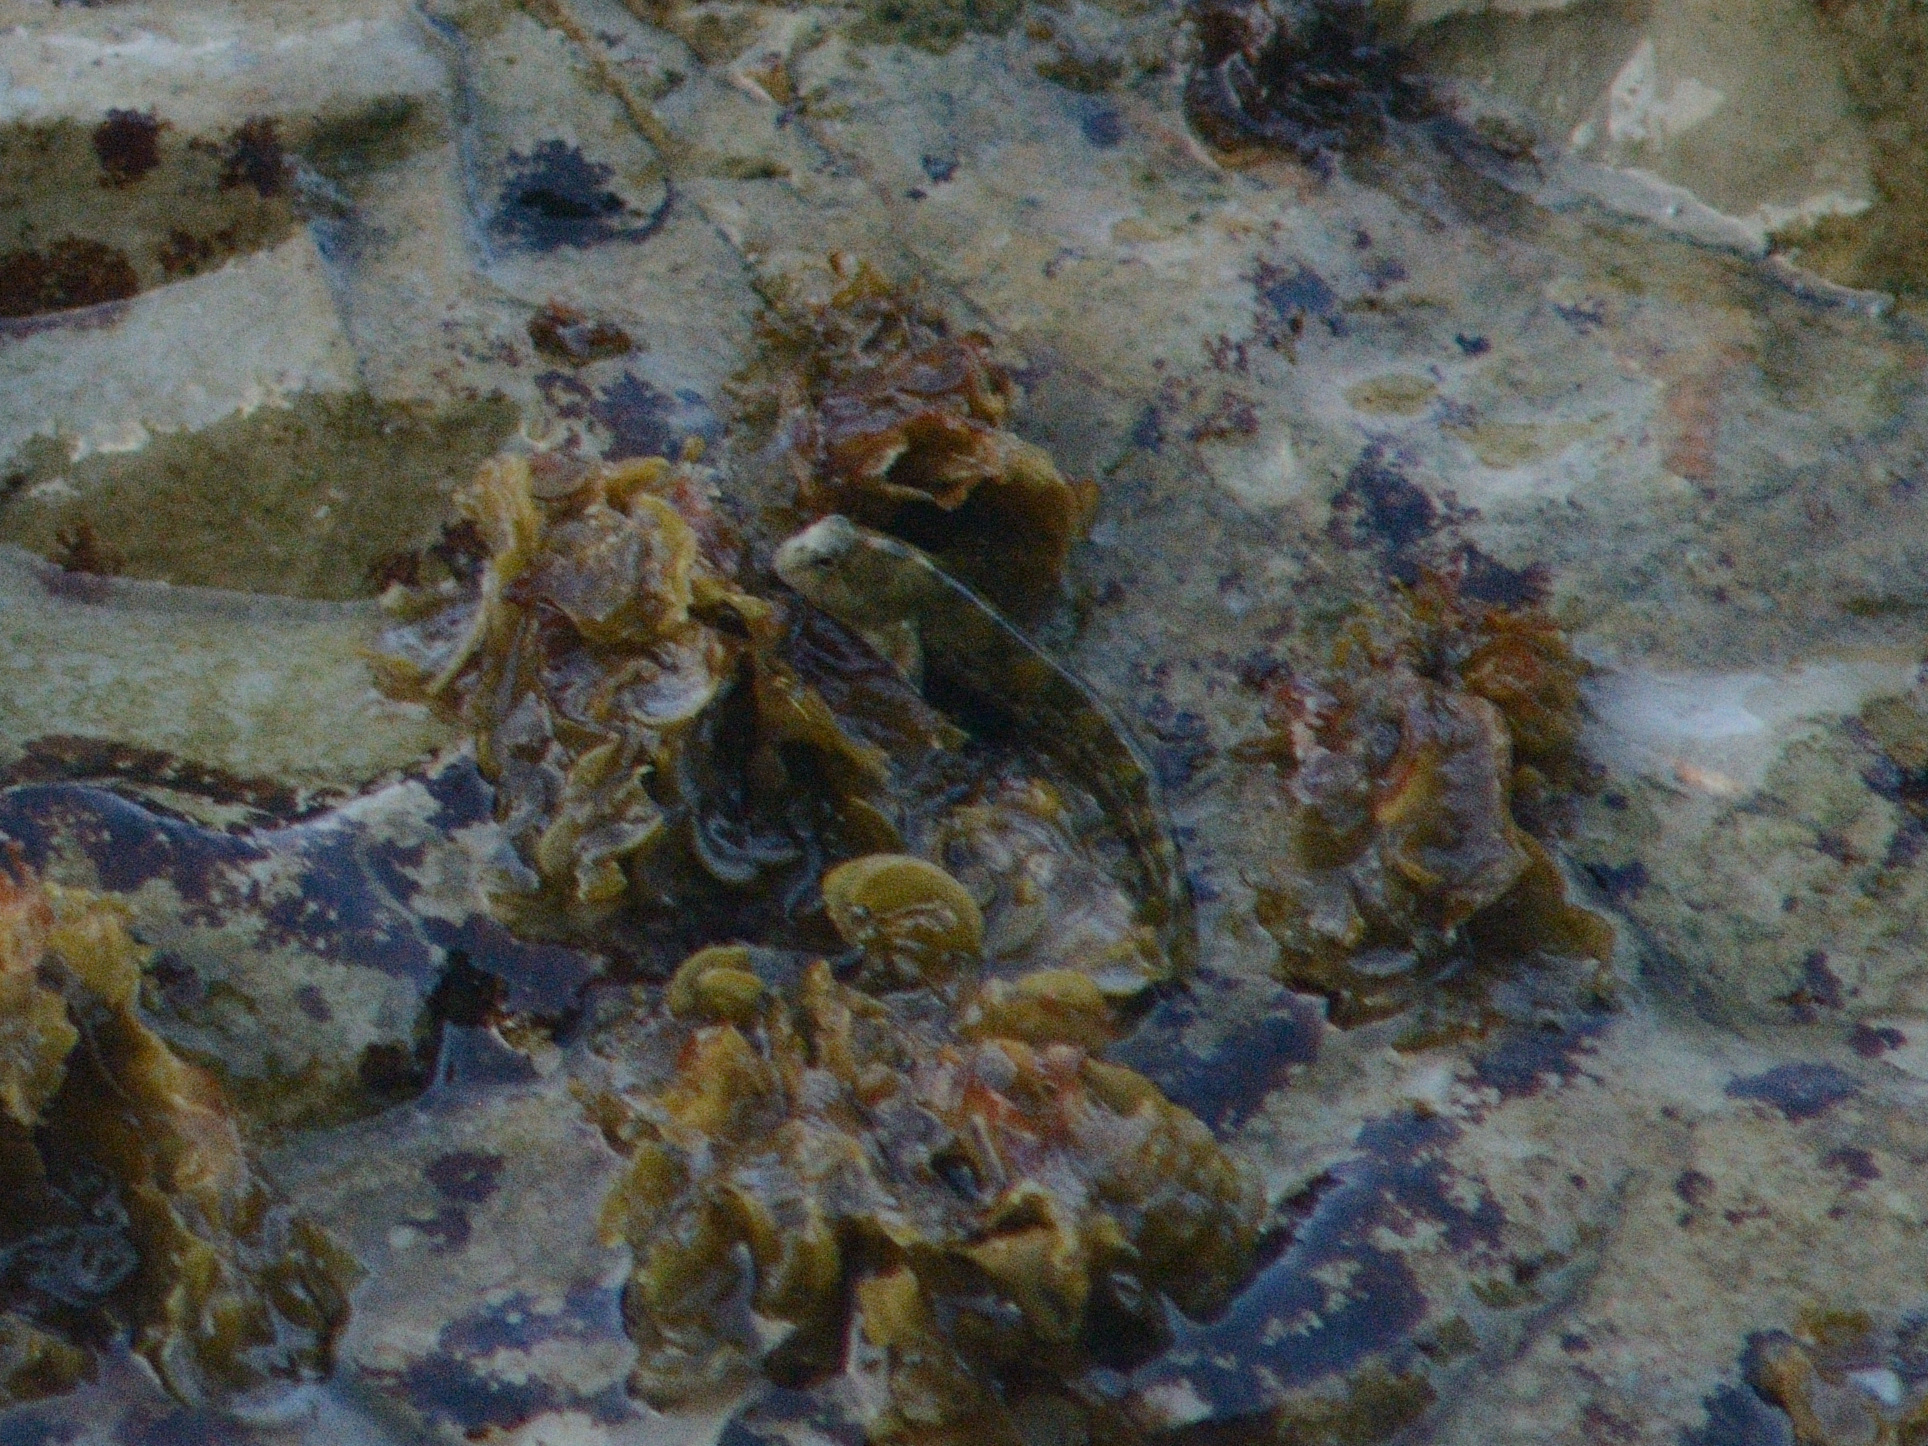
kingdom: Animalia
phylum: Chordata
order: Perciformes
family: Blenniidae
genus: Coryphoblennius
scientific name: Coryphoblennius galerita
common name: Montagu's blenny
